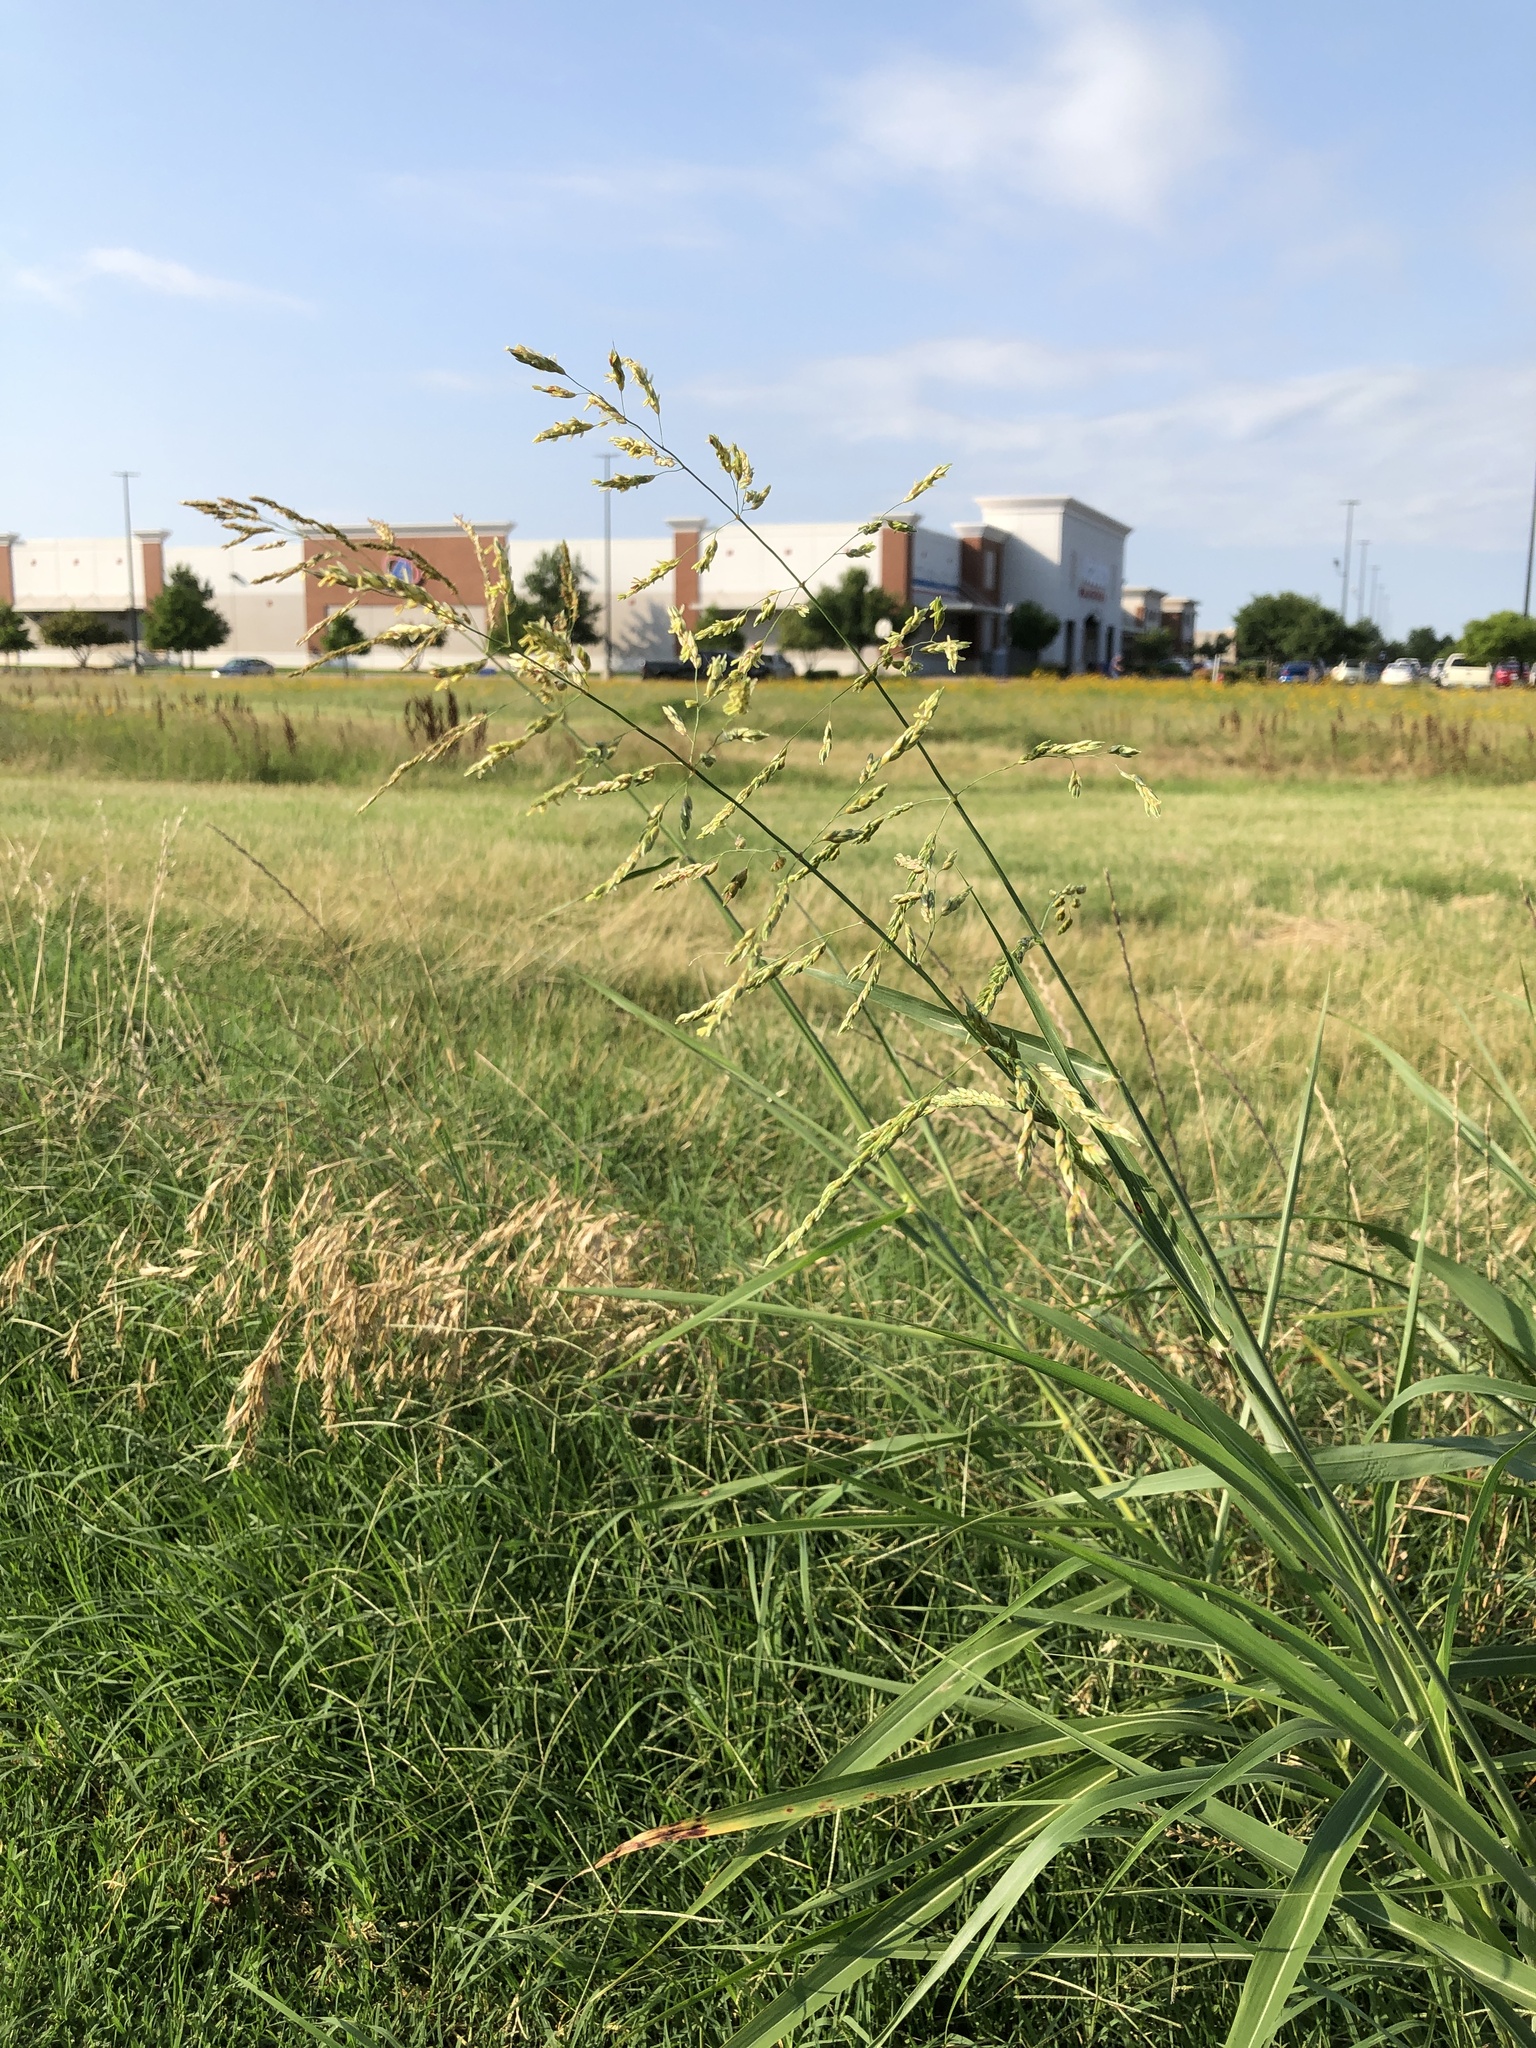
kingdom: Plantae
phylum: Tracheophyta
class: Liliopsida
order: Poales
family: Poaceae
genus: Sorghum
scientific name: Sorghum halepense
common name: Johnson-grass
